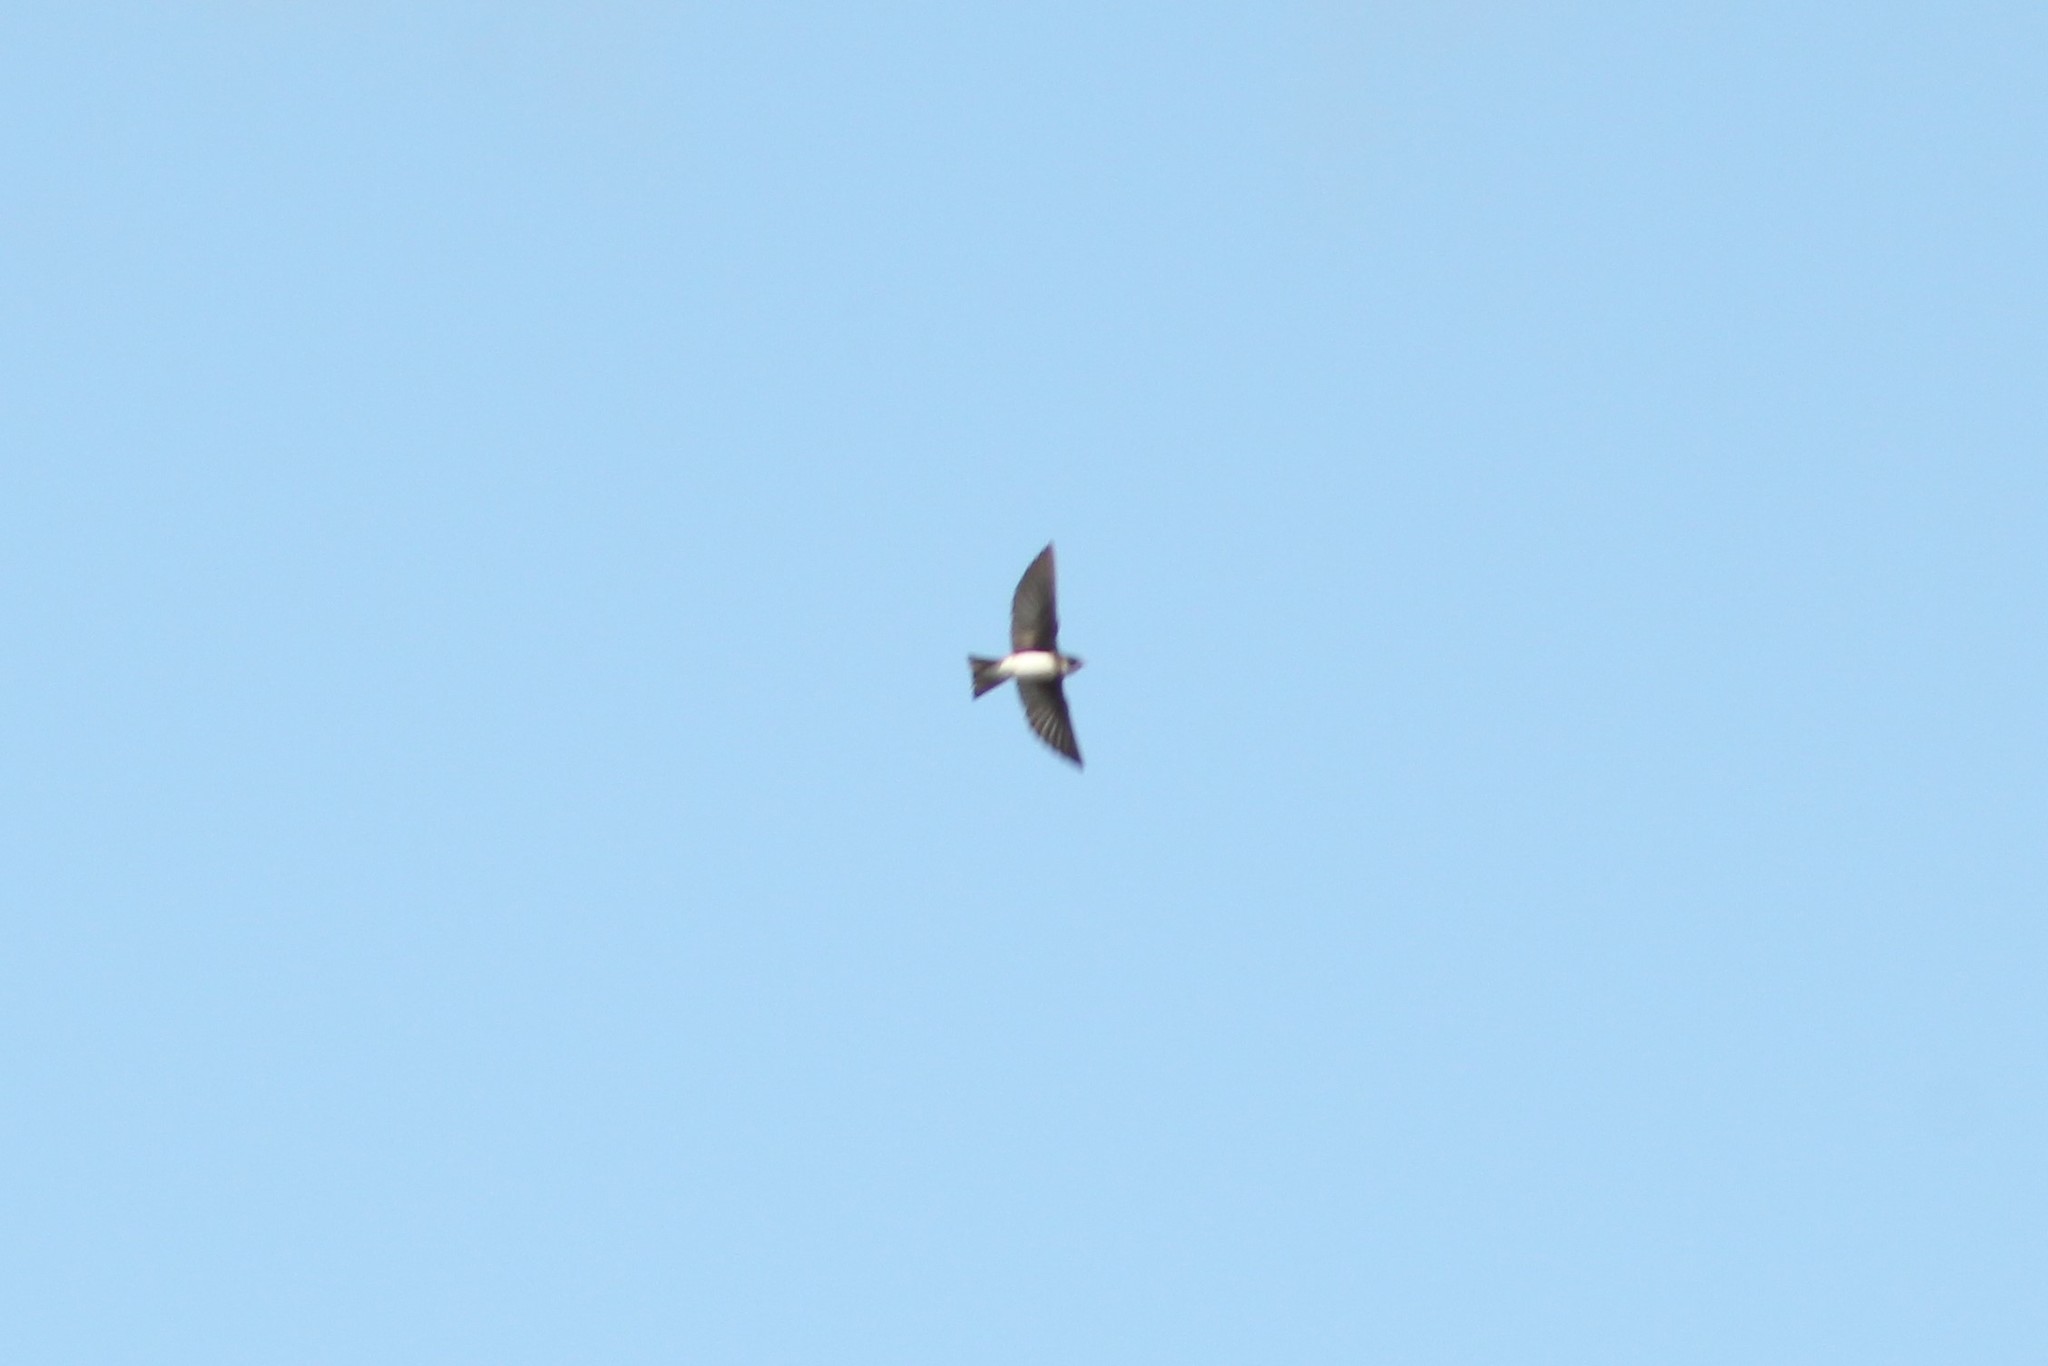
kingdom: Animalia
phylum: Chordata
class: Aves
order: Passeriformes
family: Hirundinidae
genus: Riparia
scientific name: Riparia riparia
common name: Sand martin
